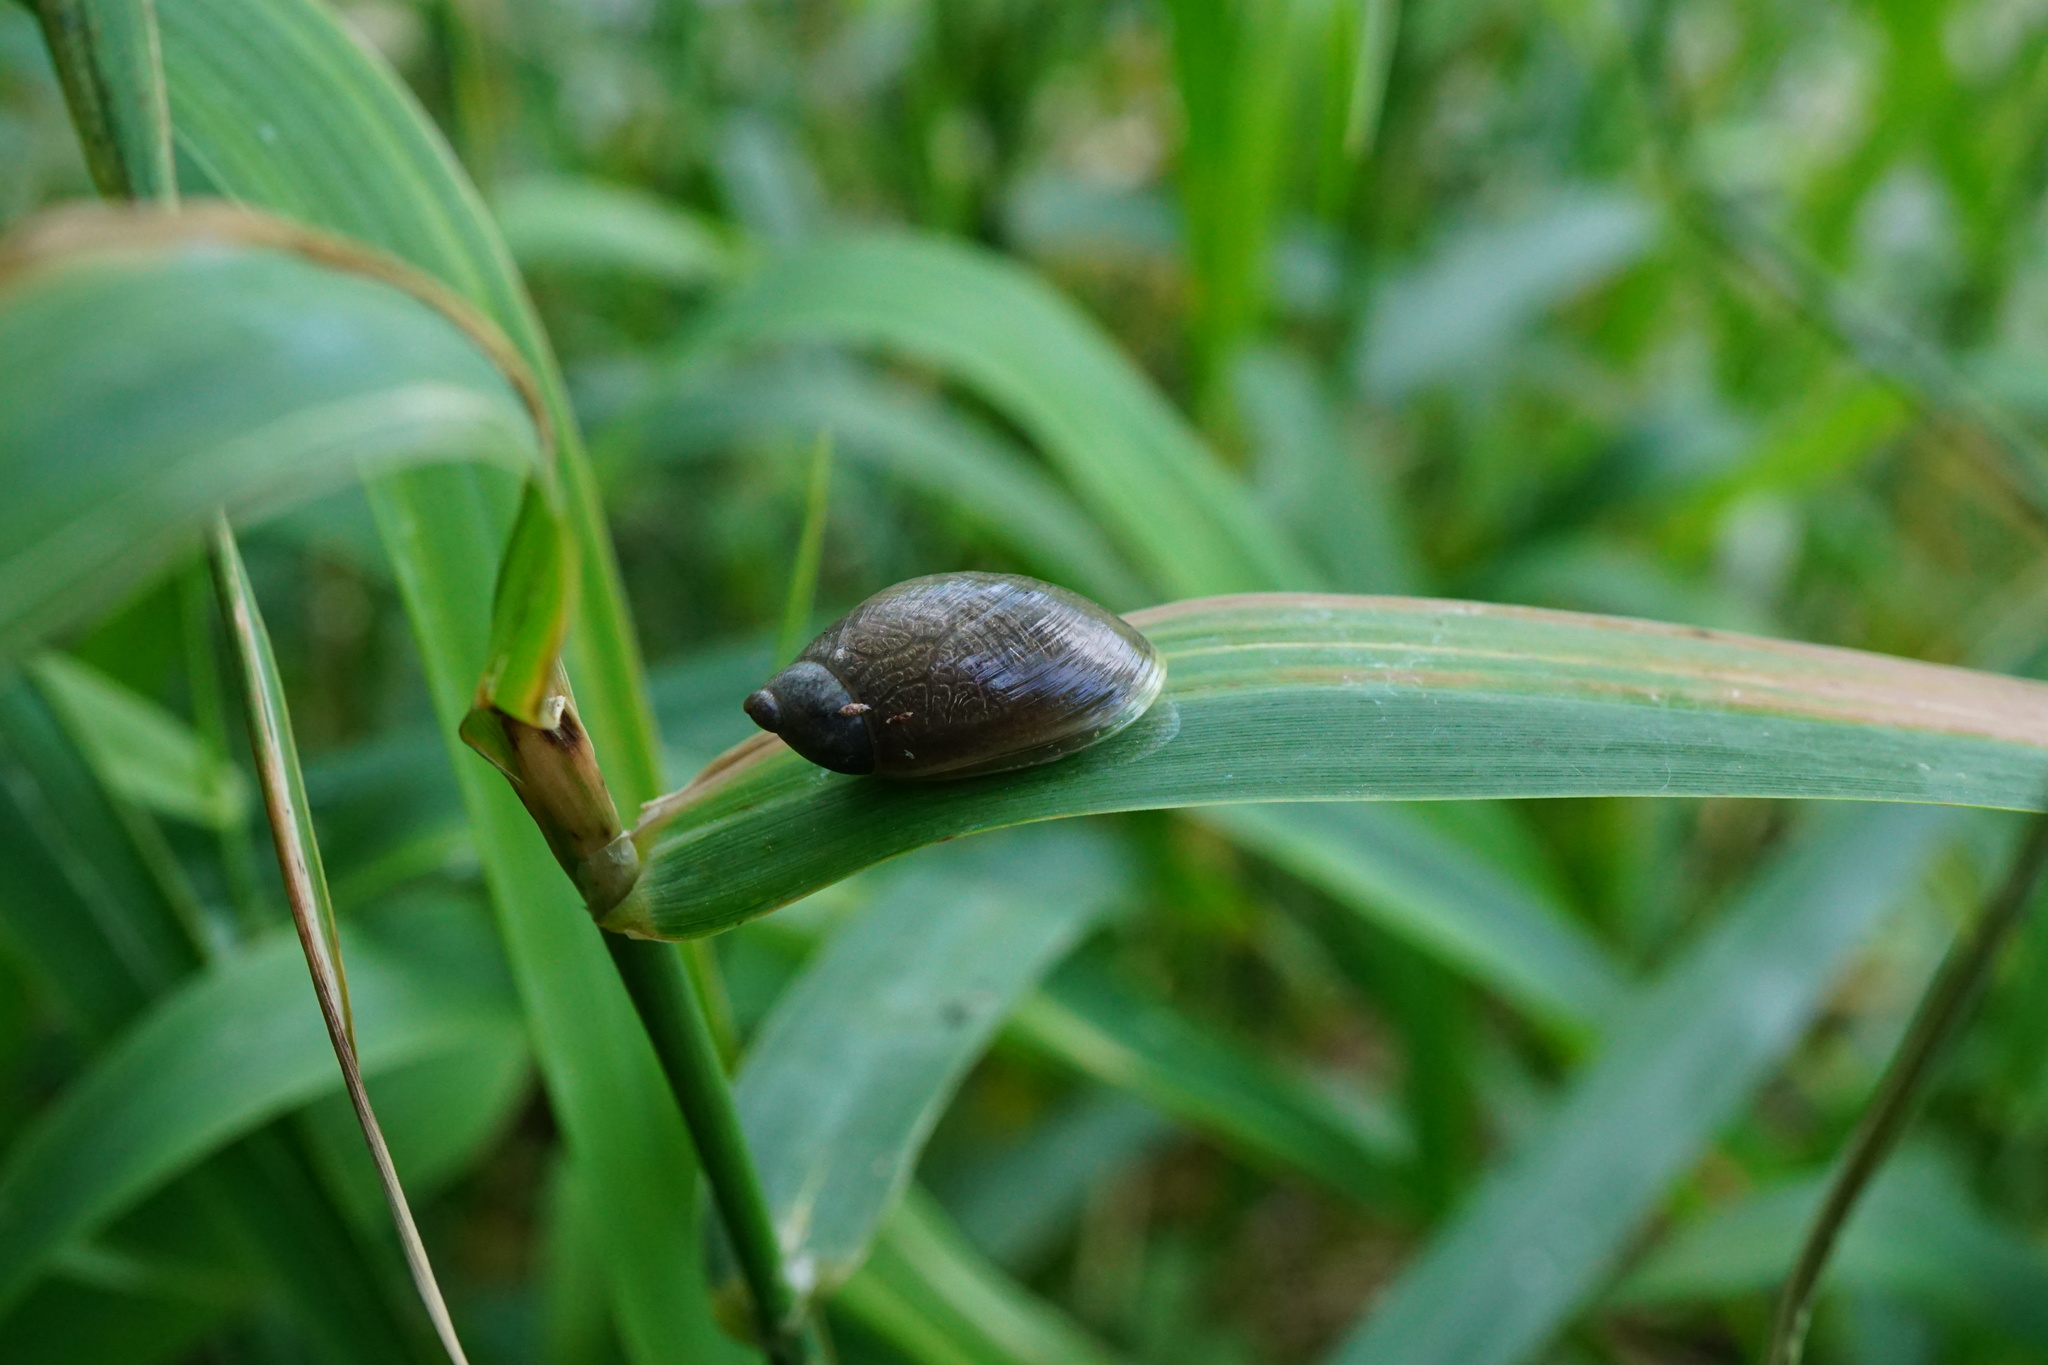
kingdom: Animalia
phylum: Mollusca
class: Gastropoda
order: Stylommatophora
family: Succineidae
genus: Succinea
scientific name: Succinea putris
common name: European ambersnail
